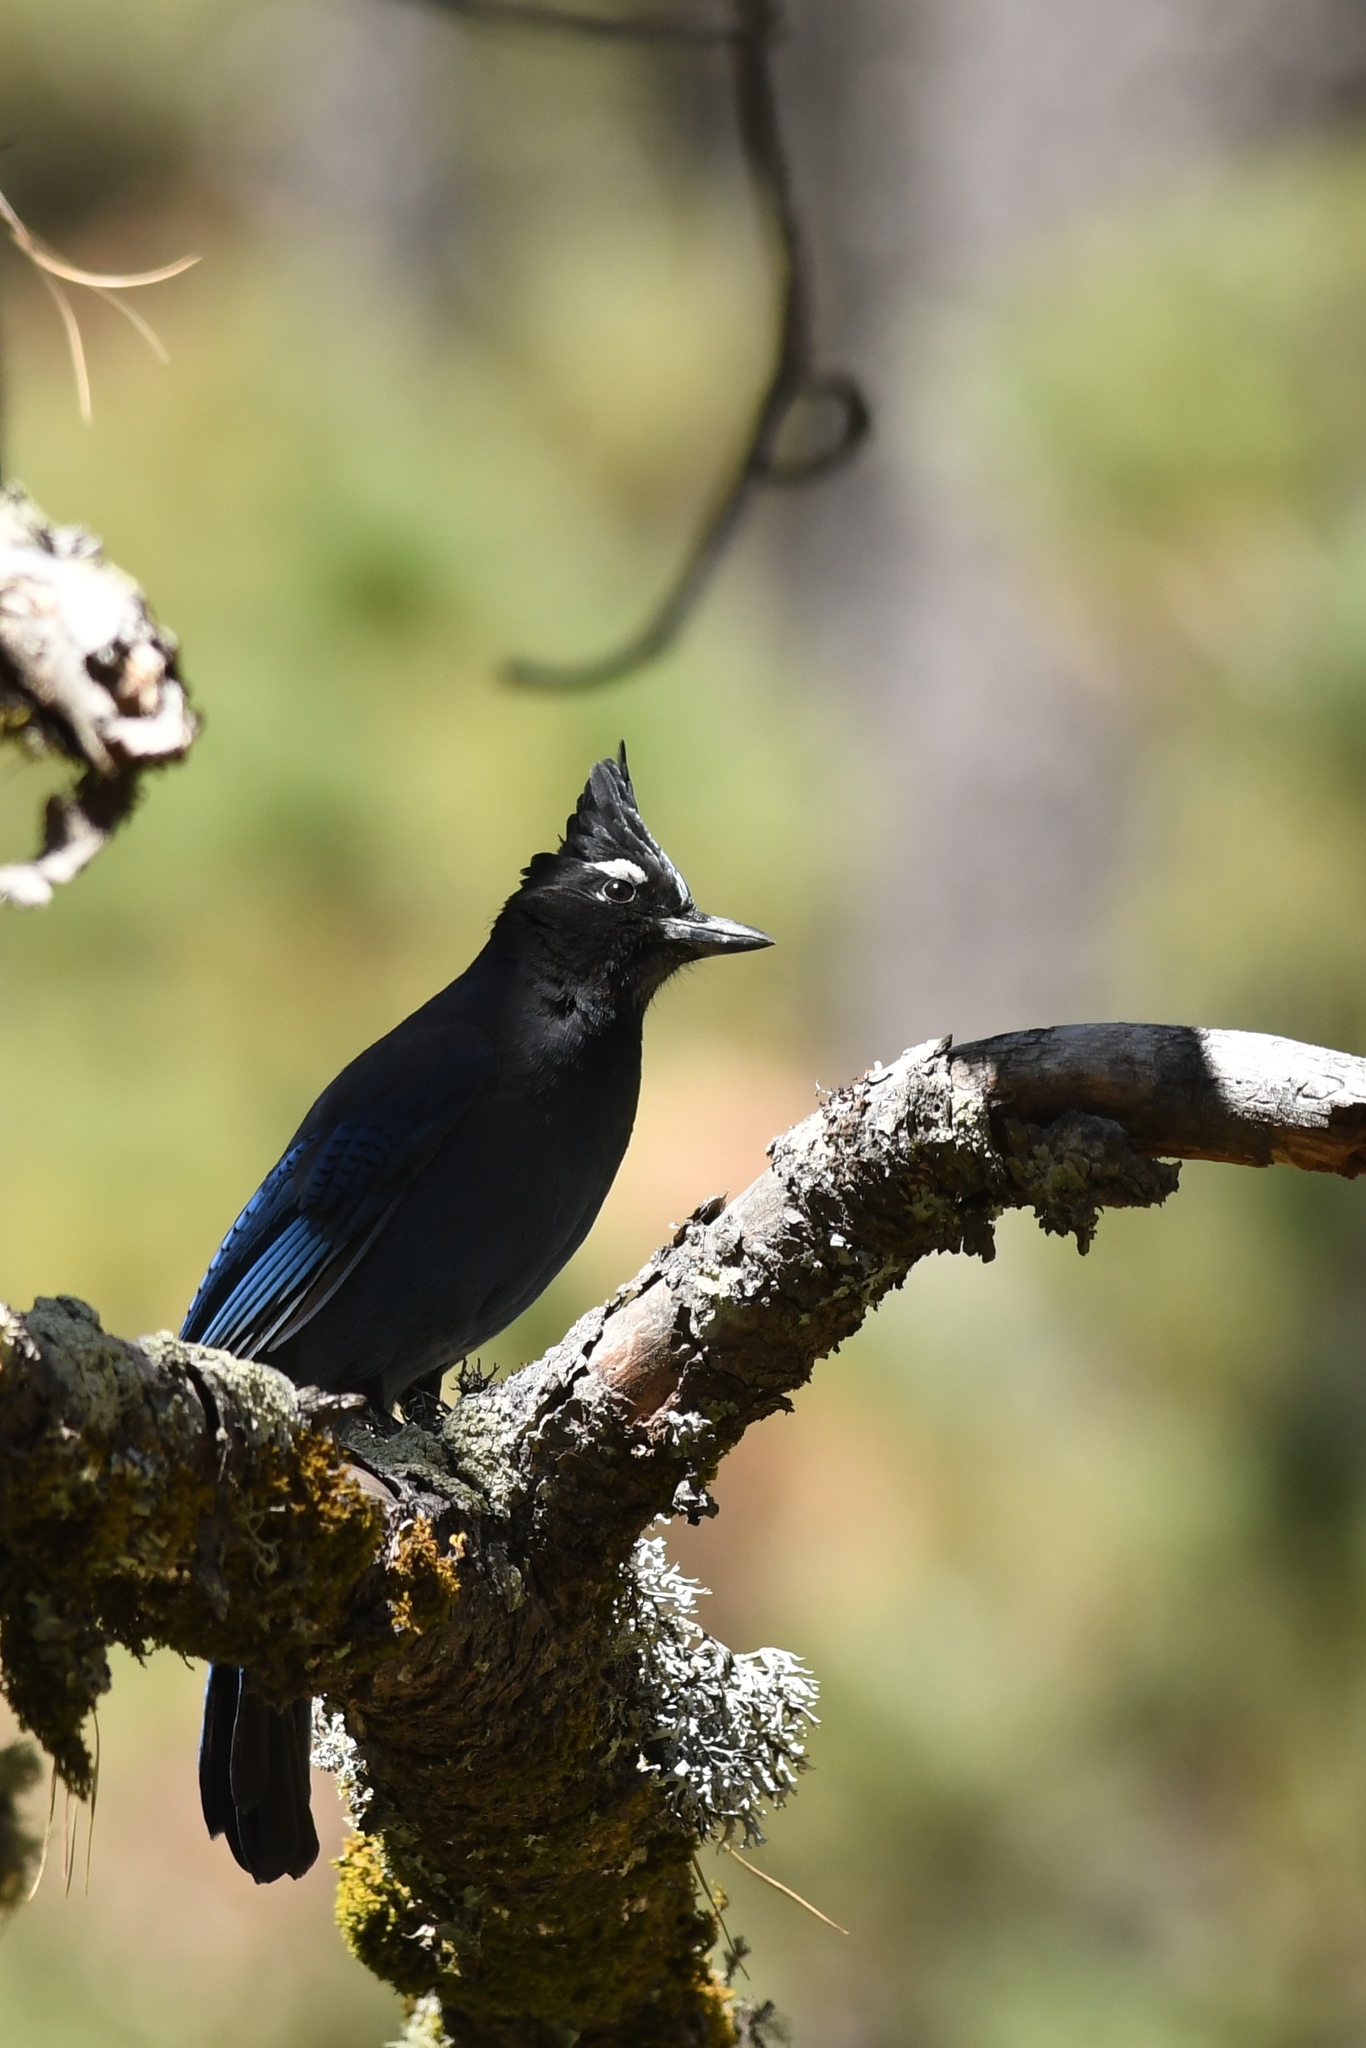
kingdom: Animalia
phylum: Chordata
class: Aves
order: Passeriformes
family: Corvidae
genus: Cyanocitta
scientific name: Cyanocitta stelleri
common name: Steller's jay
